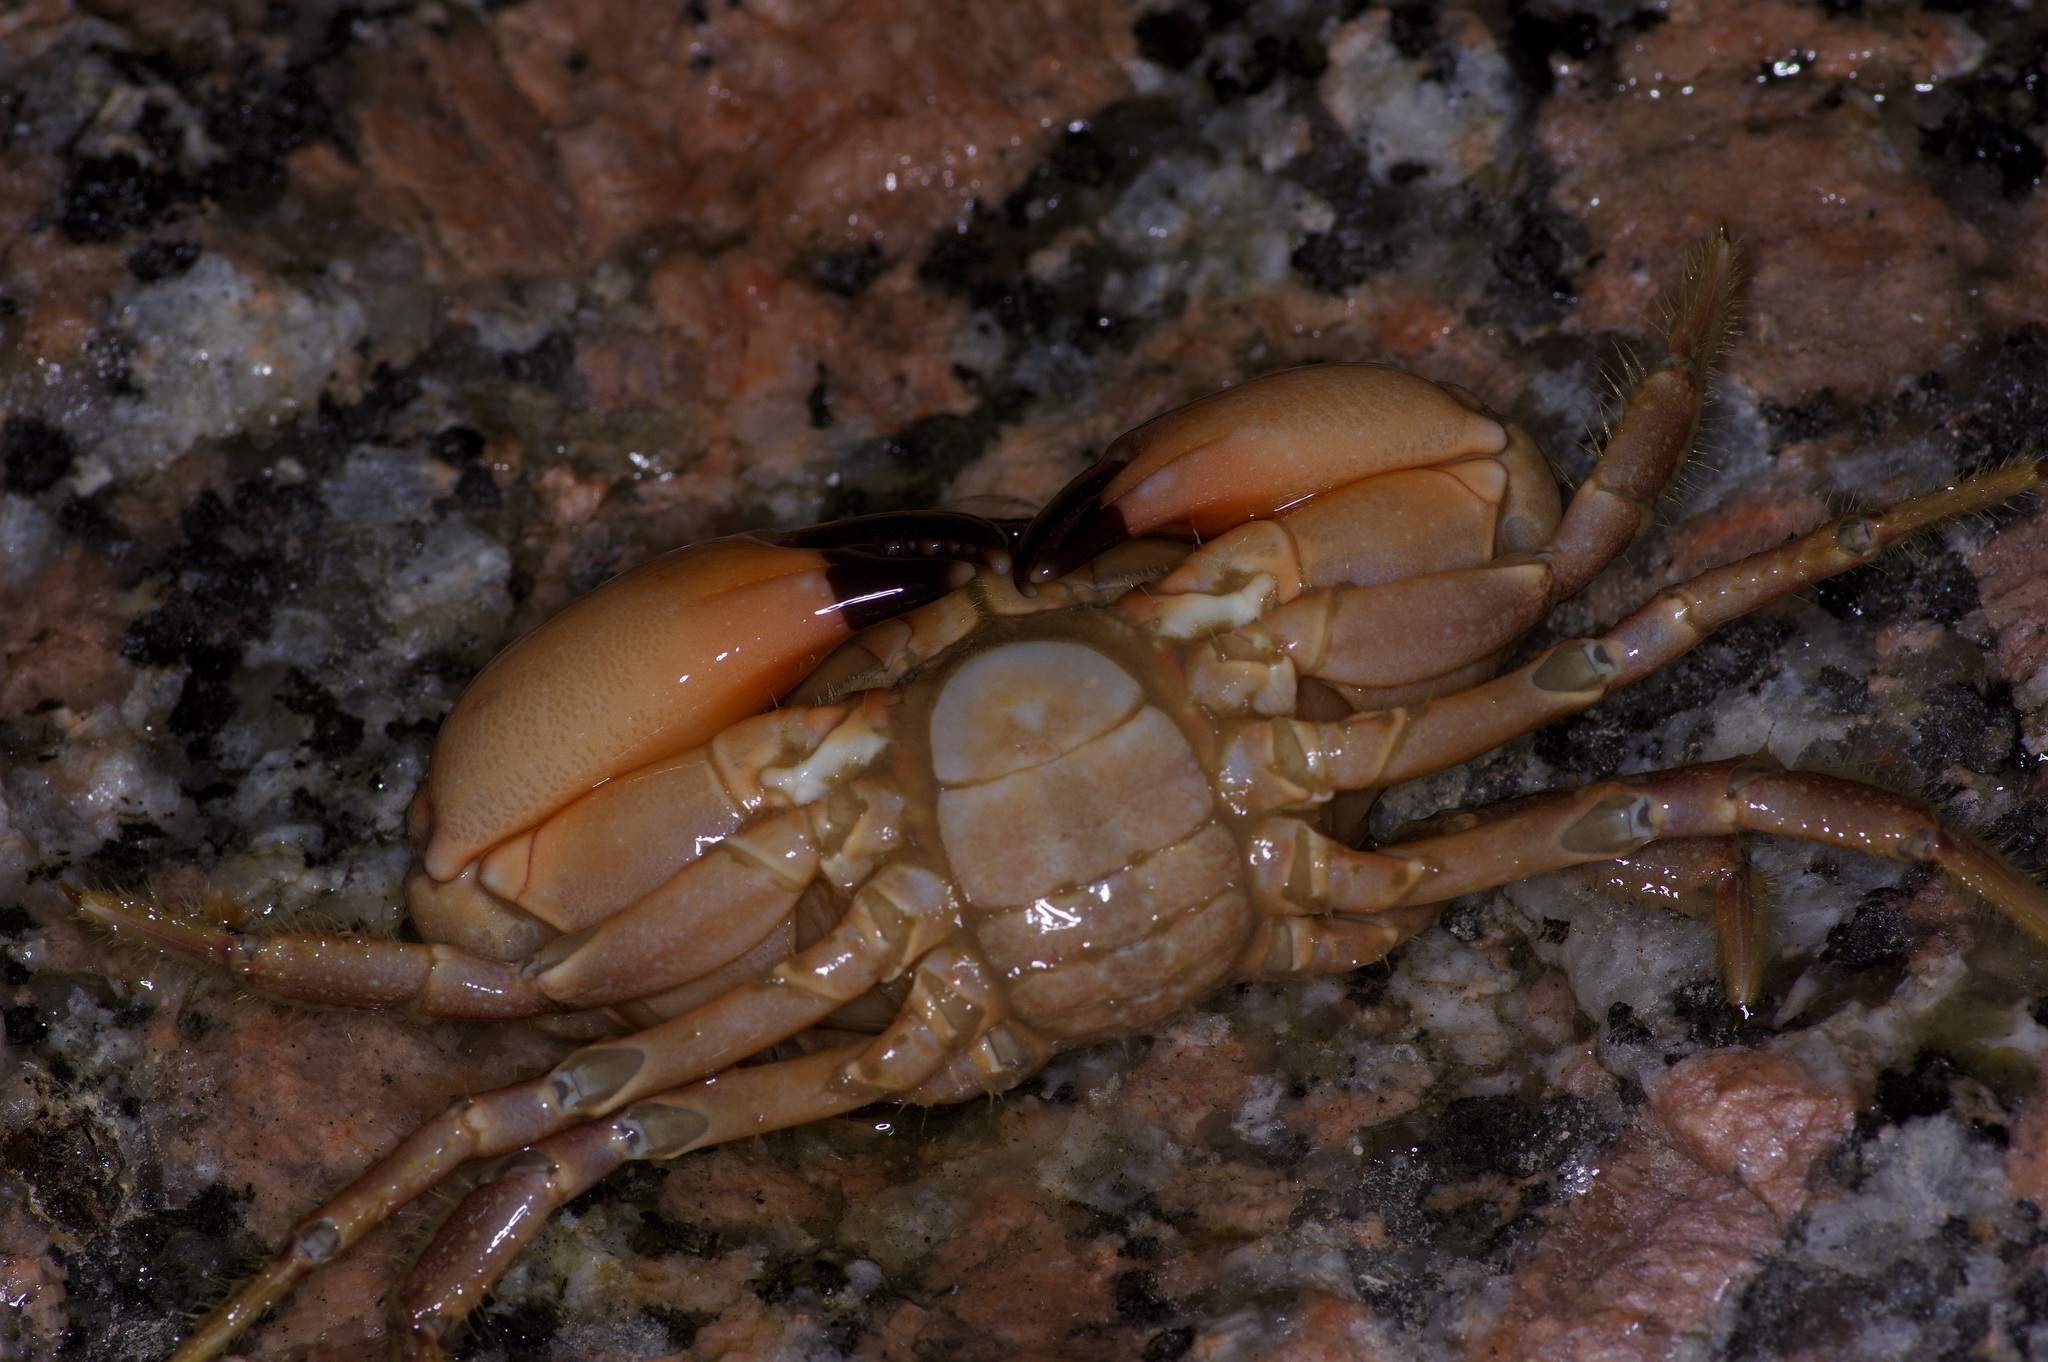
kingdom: Animalia
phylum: Arthropoda
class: Malacostraca
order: Decapoda
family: Menippidae
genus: Menippe
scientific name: Menippe adina
